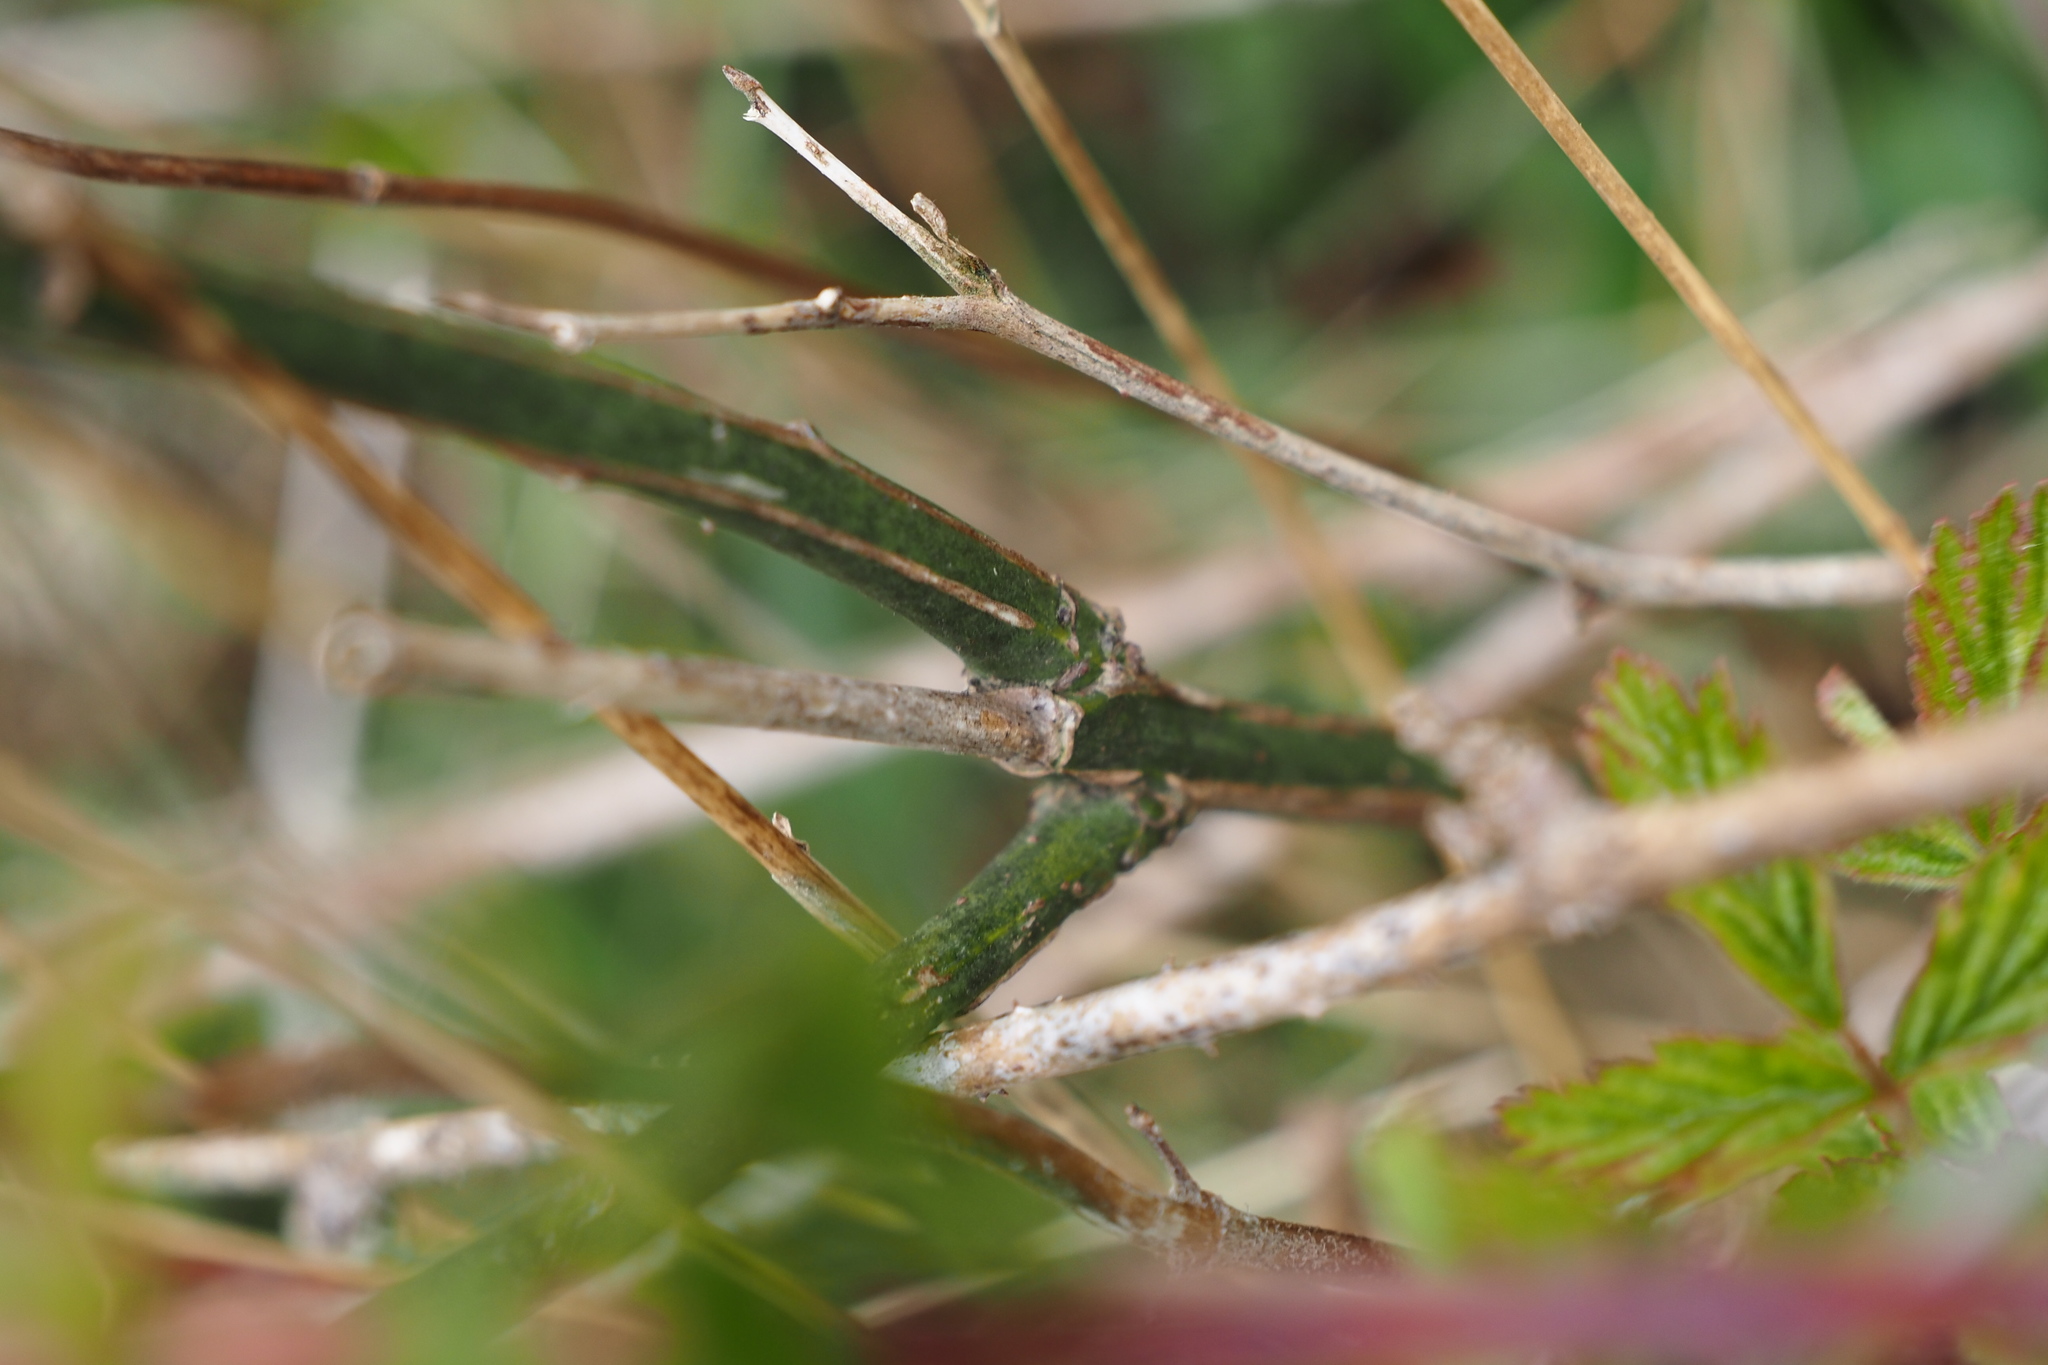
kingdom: Plantae
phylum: Tracheophyta
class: Magnoliopsida
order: Celastrales
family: Celastraceae
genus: Euonymus
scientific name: Euonymus europaeus
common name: Spindle
